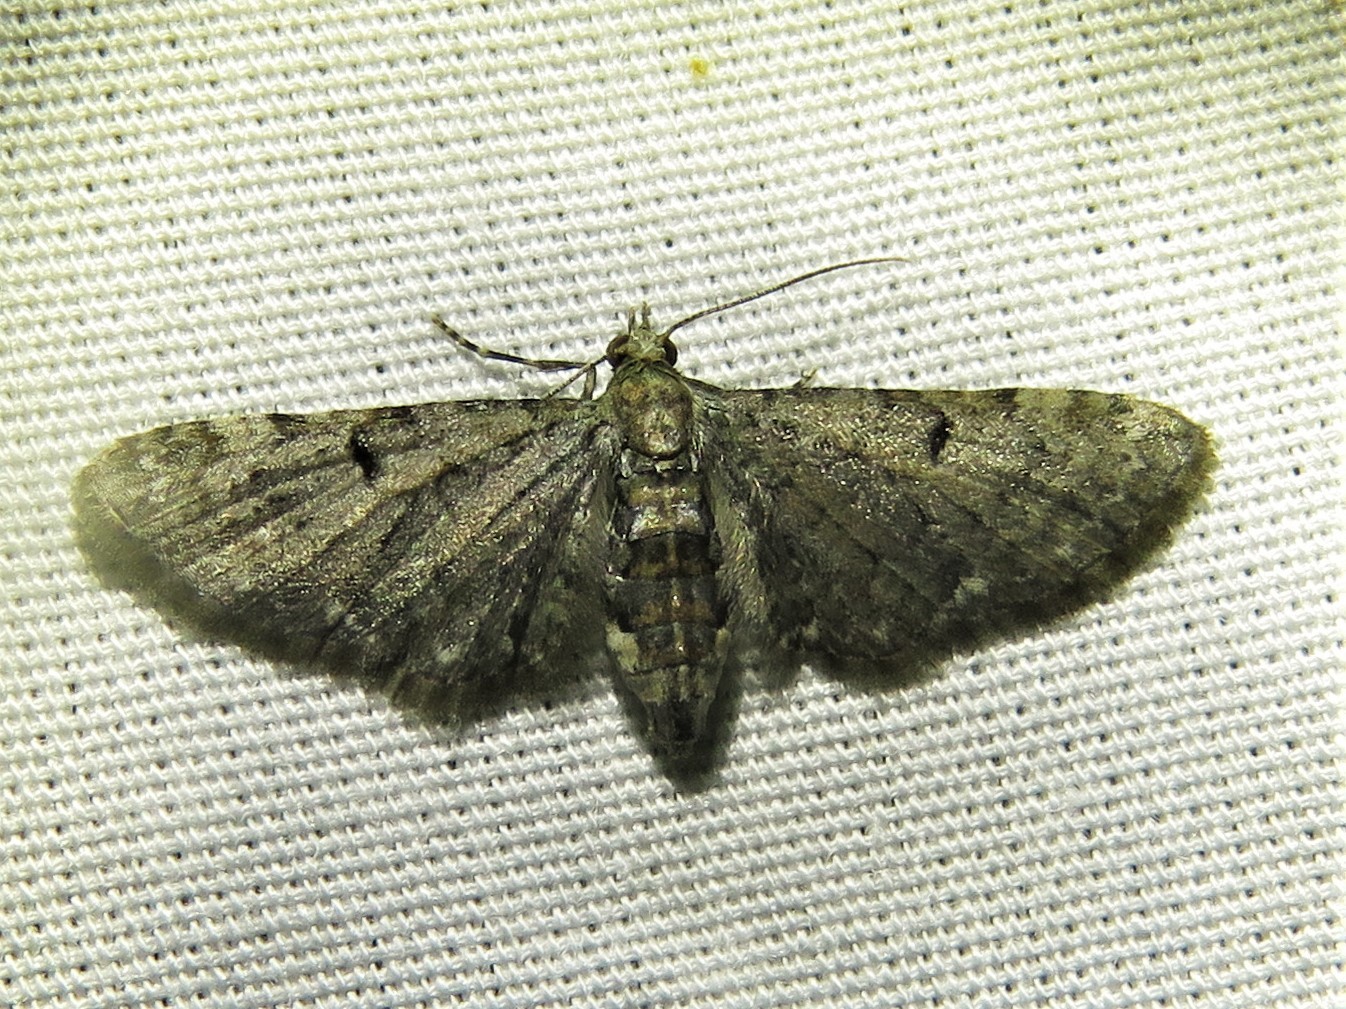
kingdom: Animalia
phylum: Arthropoda
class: Insecta
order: Lepidoptera
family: Geometridae
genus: Eupithecia
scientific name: Eupithecia miserulata
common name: Common eupithecia
